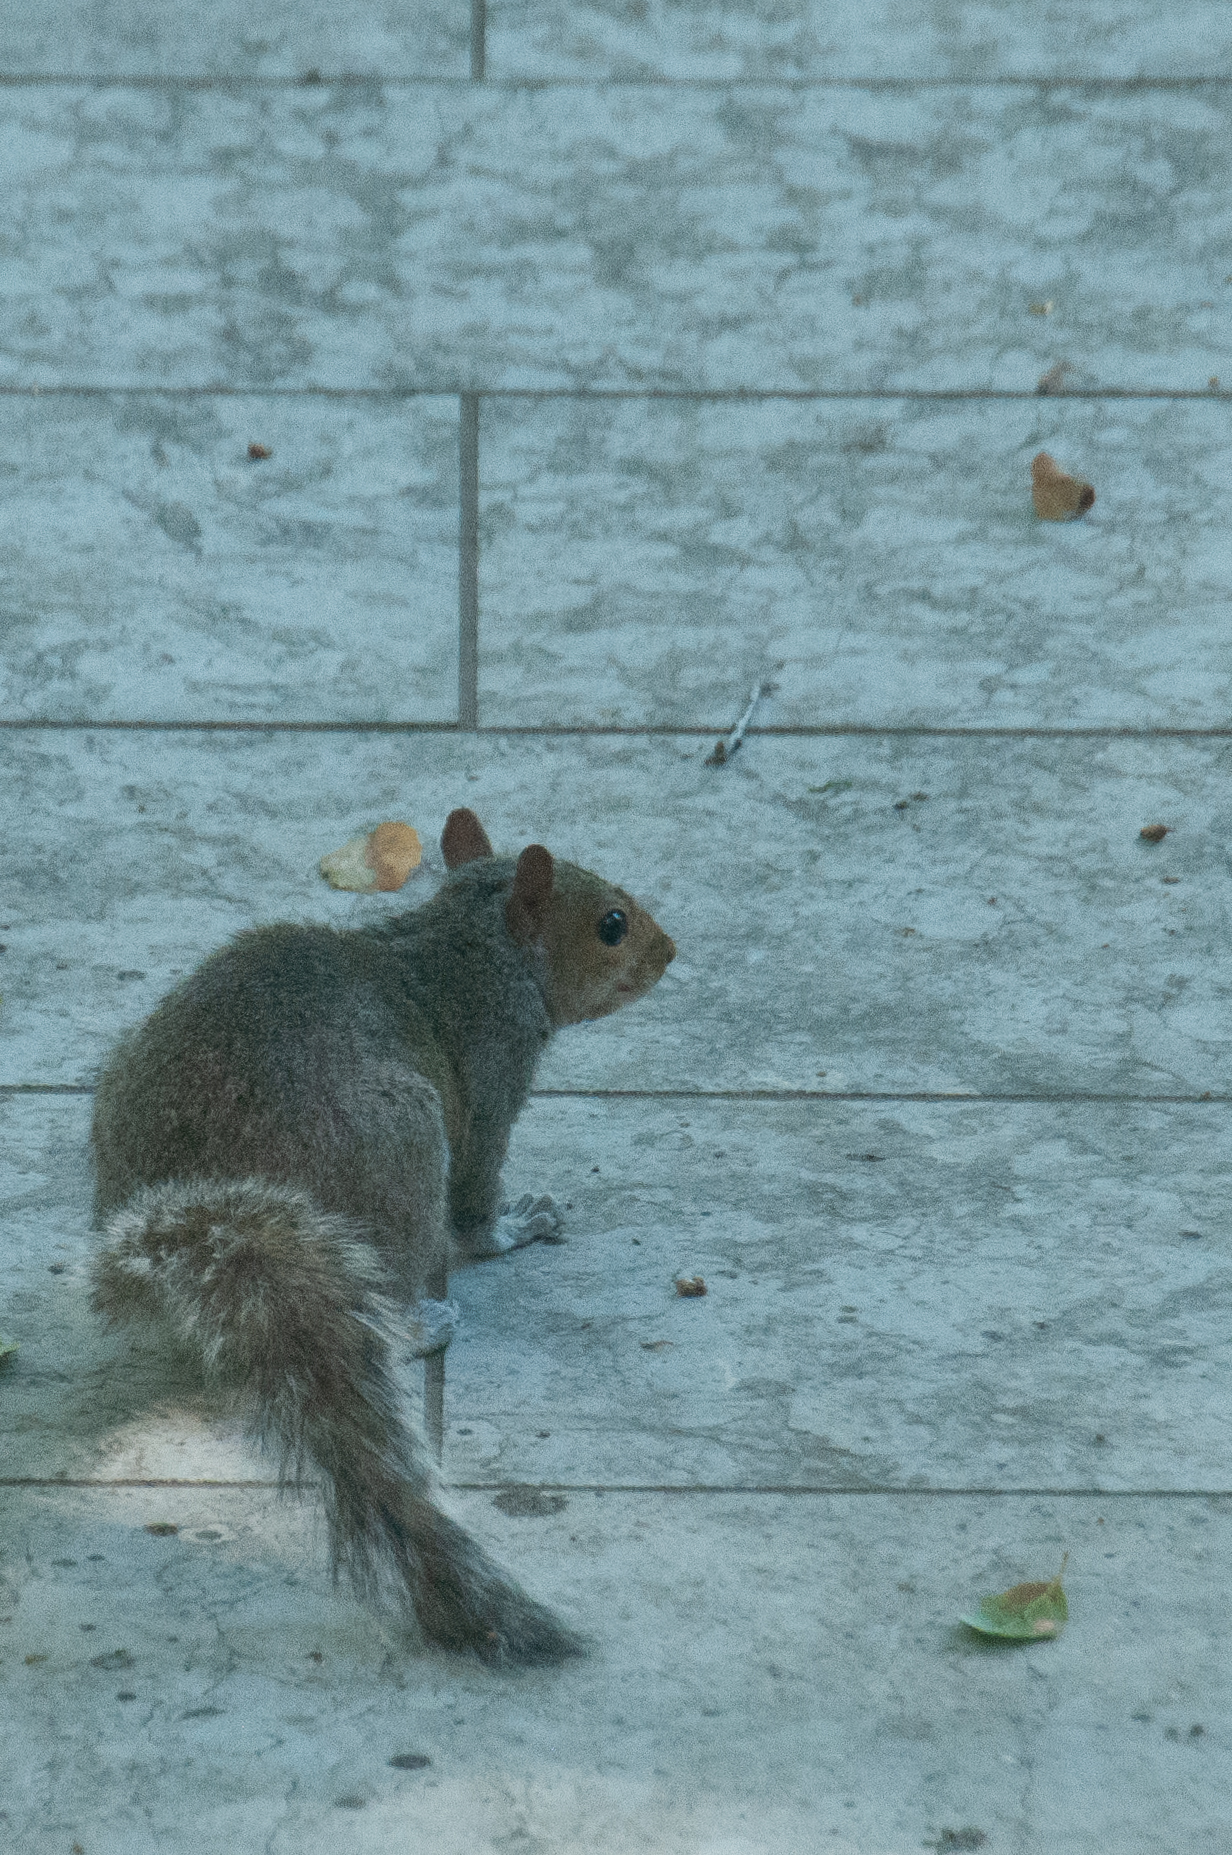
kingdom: Animalia
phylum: Chordata
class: Mammalia
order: Rodentia
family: Sciuridae
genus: Sciurus
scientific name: Sciurus carolinensis
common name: Eastern gray squirrel
